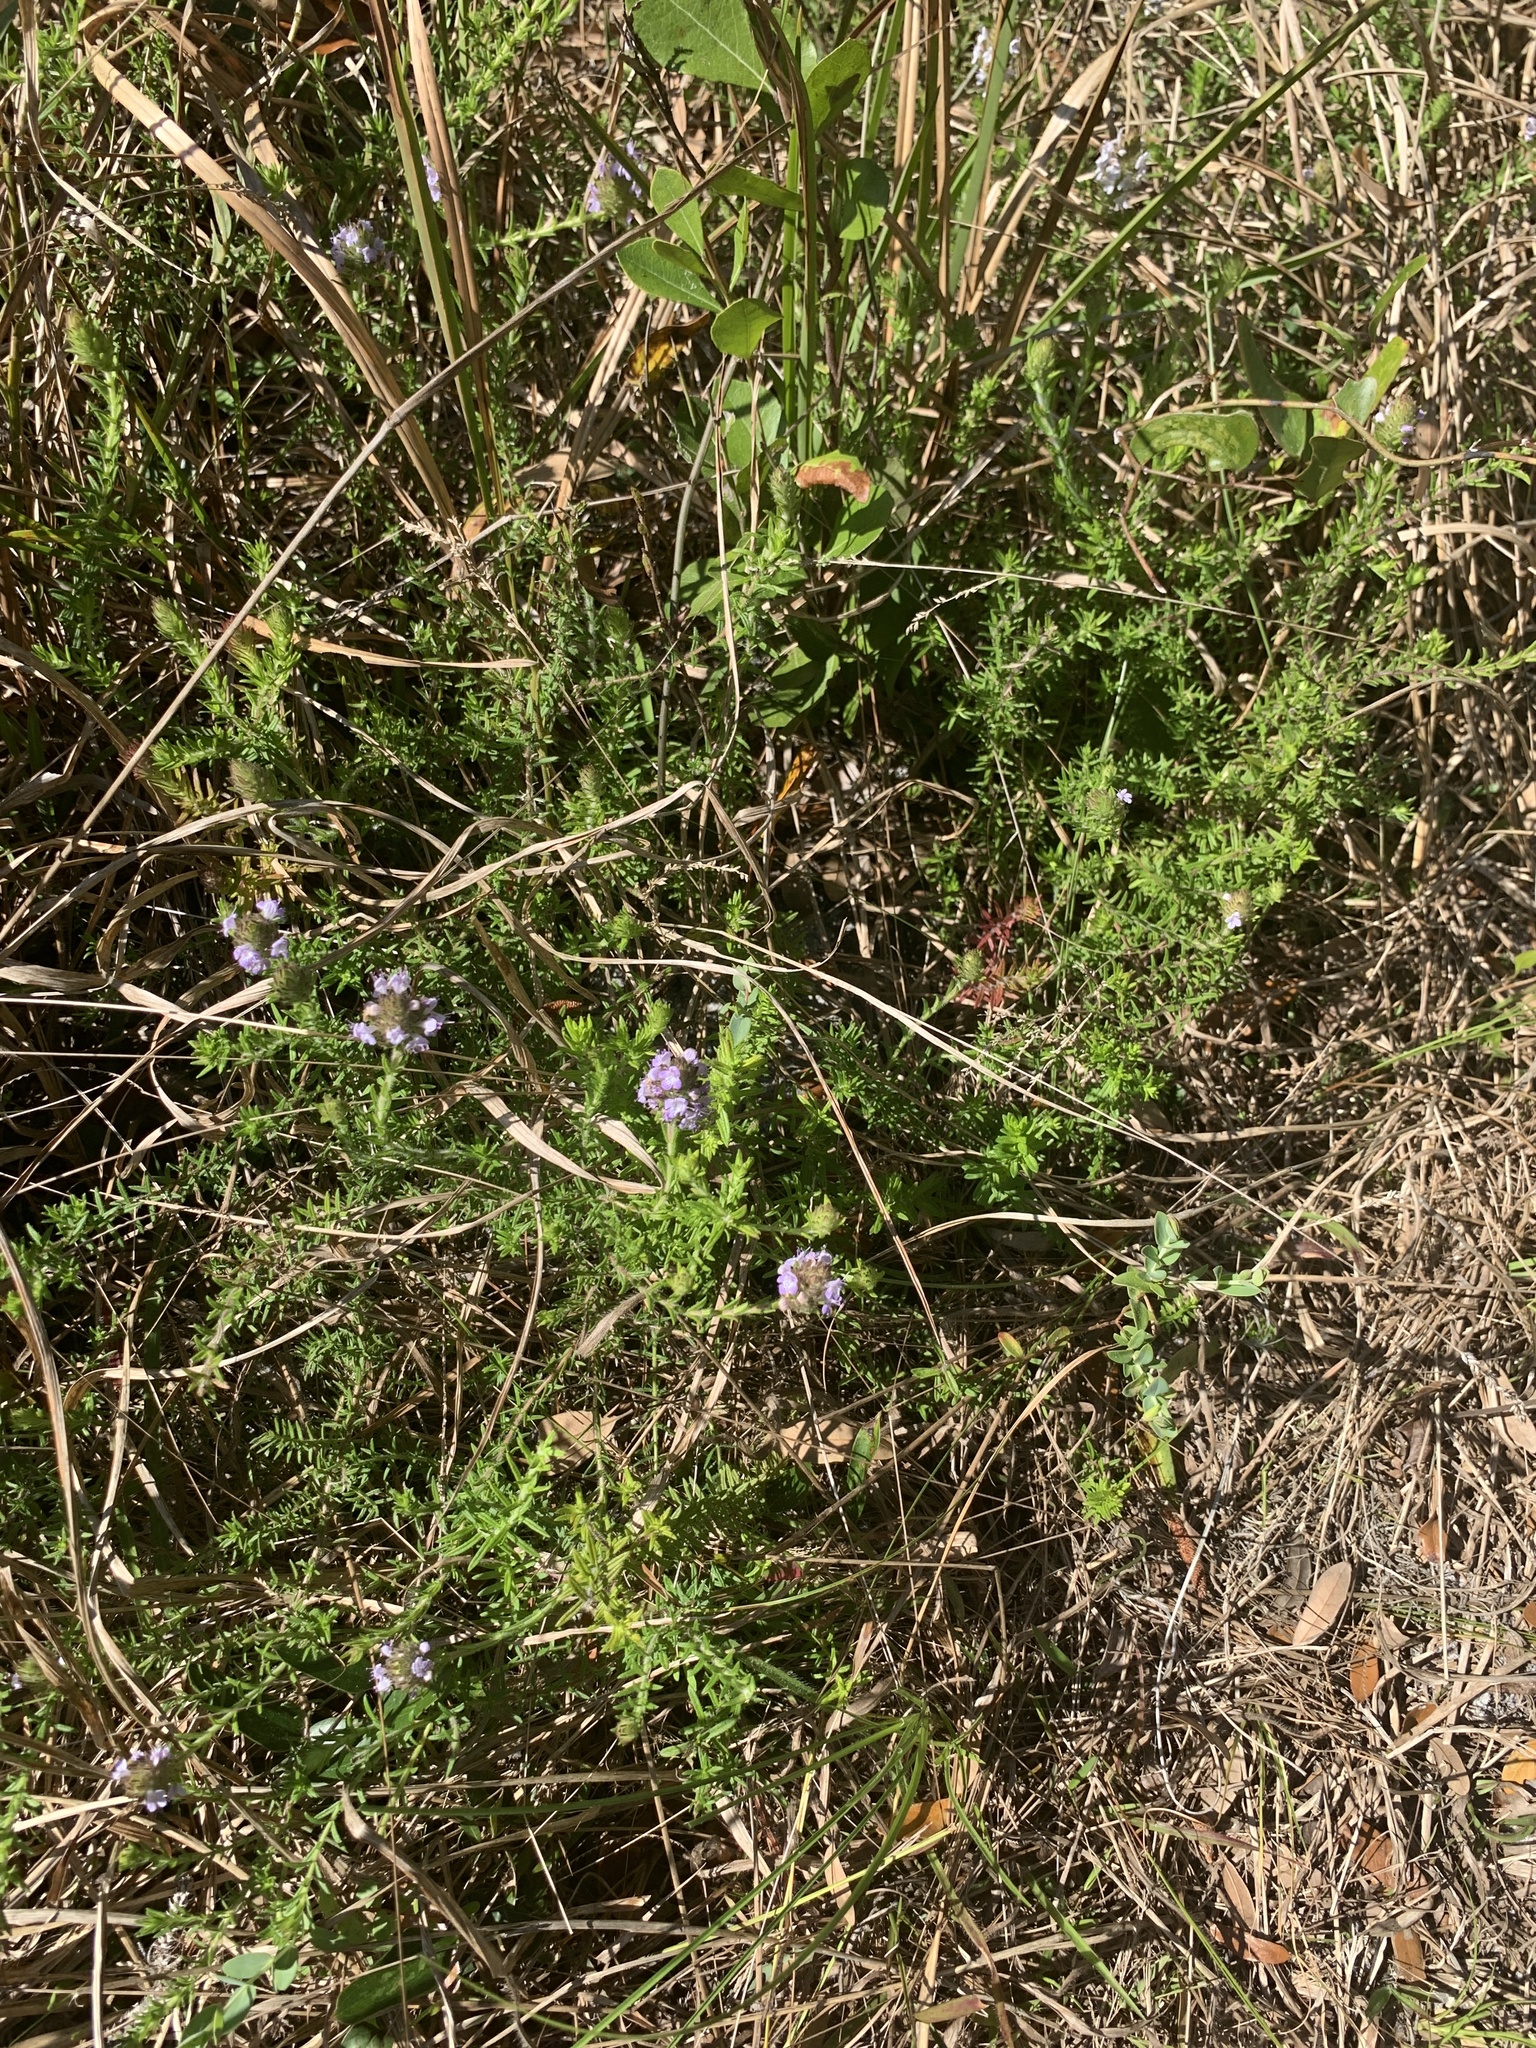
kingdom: Plantae
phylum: Tracheophyta
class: Magnoliopsida
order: Lamiales
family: Lamiaceae
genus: Piloblephis
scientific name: Piloblephis rigida
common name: Wild pennyroyal
